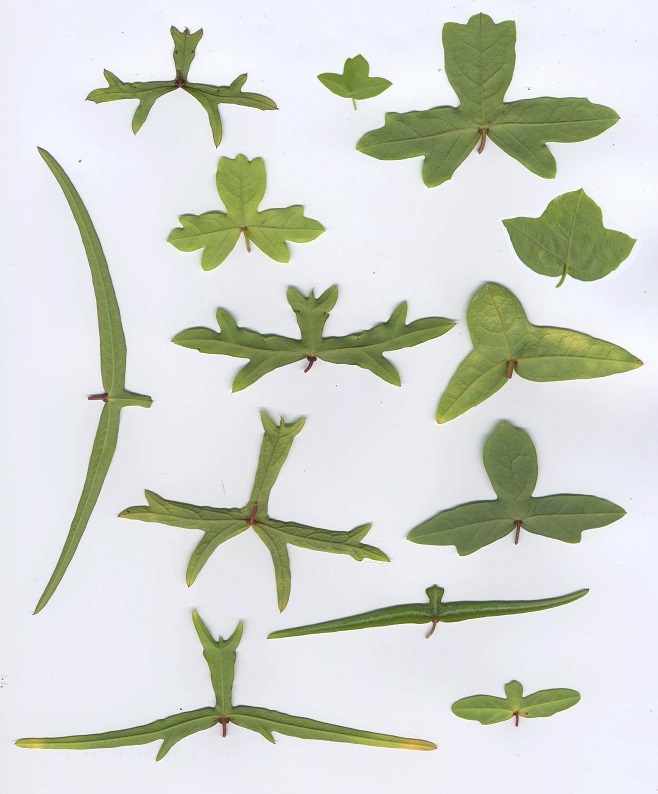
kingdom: Plantae
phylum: Tracheophyta
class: Magnoliopsida
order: Malpighiales
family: Passifloraceae
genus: Passiflora
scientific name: Passiflora tenuiloba
